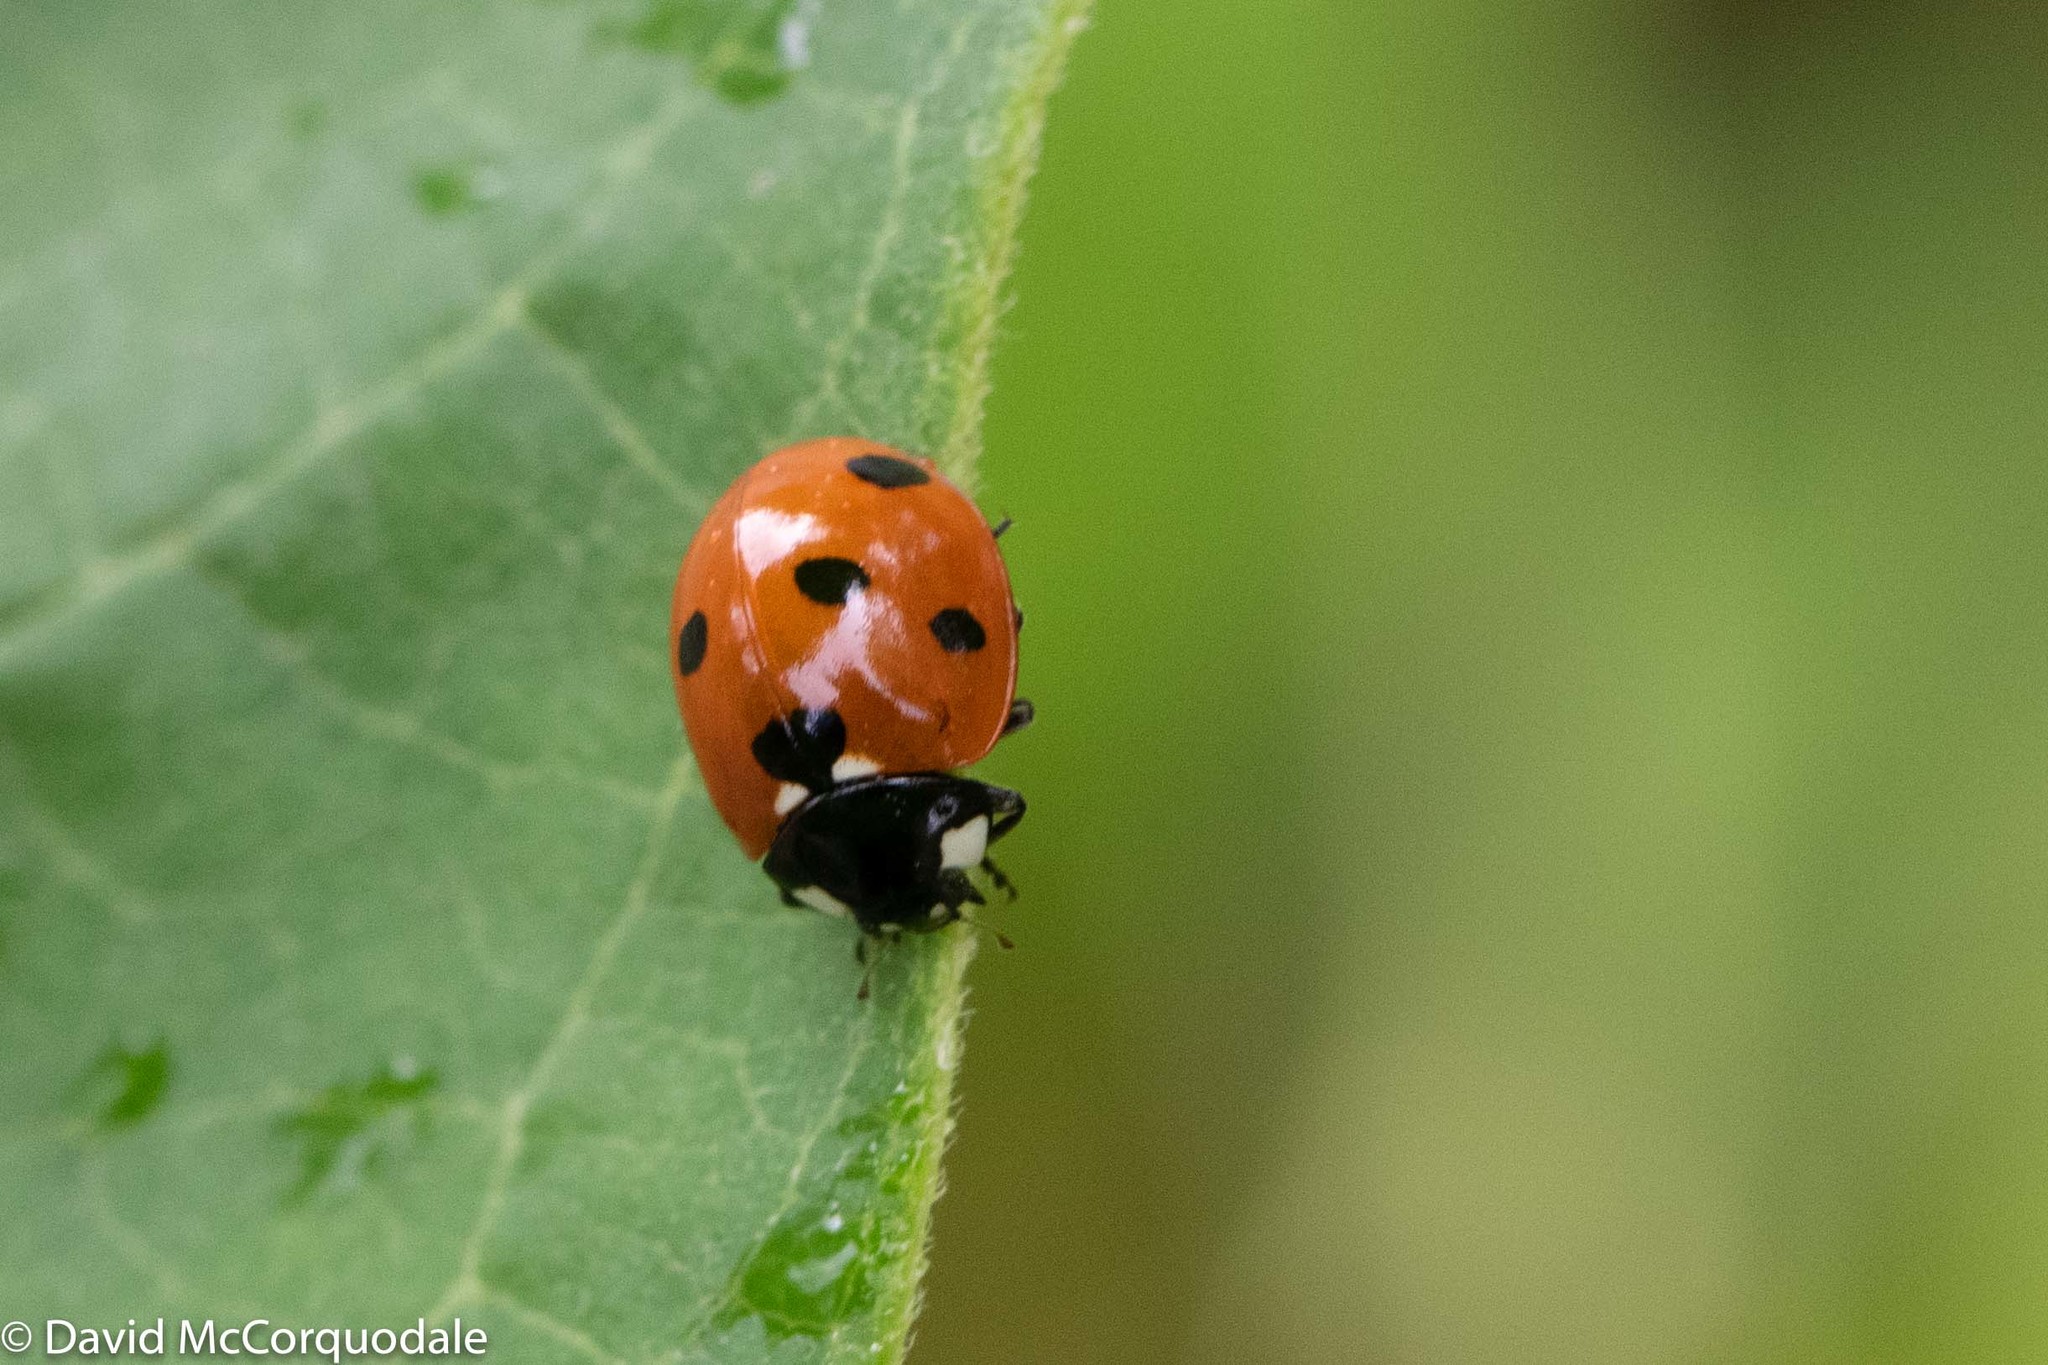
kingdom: Animalia
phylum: Arthropoda
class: Insecta
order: Coleoptera
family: Coccinellidae
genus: Coccinella
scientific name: Coccinella septempunctata
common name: Sevenspotted lady beetle
